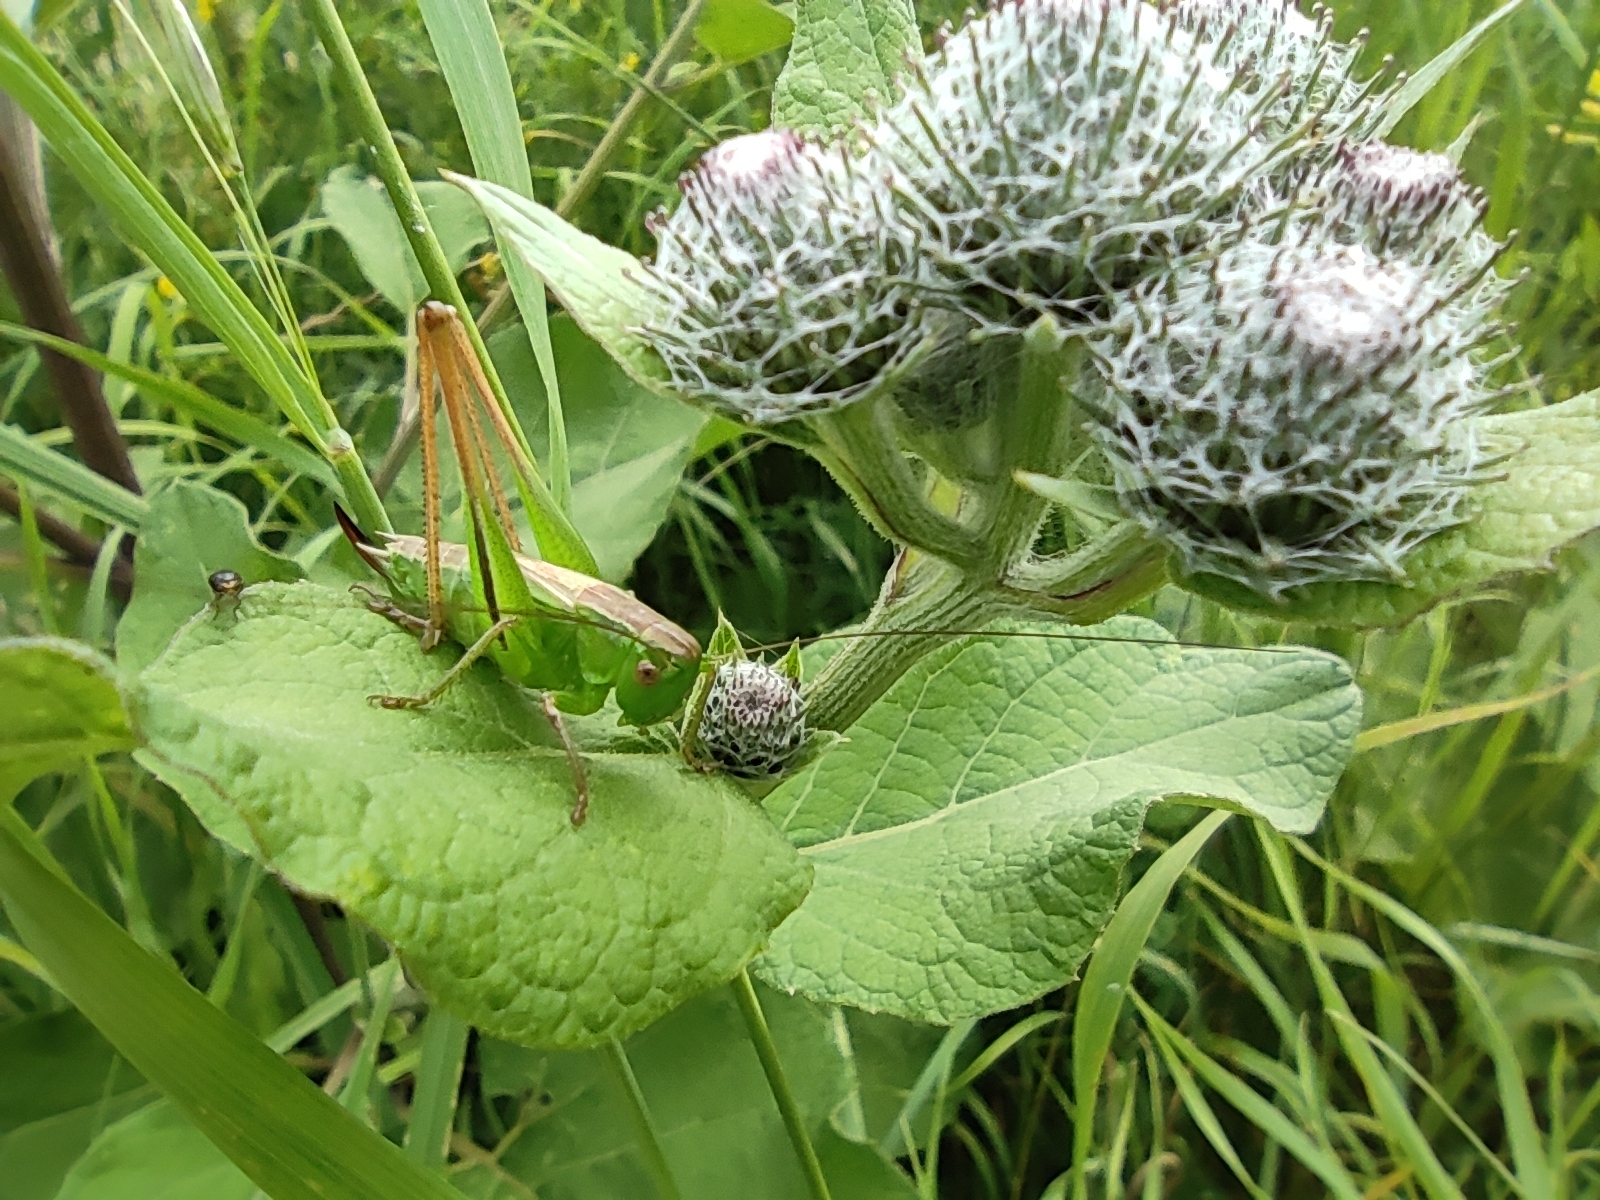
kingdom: Animalia
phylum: Arthropoda
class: Insecta
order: Orthoptera
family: Tettigoniidae
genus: Bicolorana
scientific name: Bicolorana bicolor
